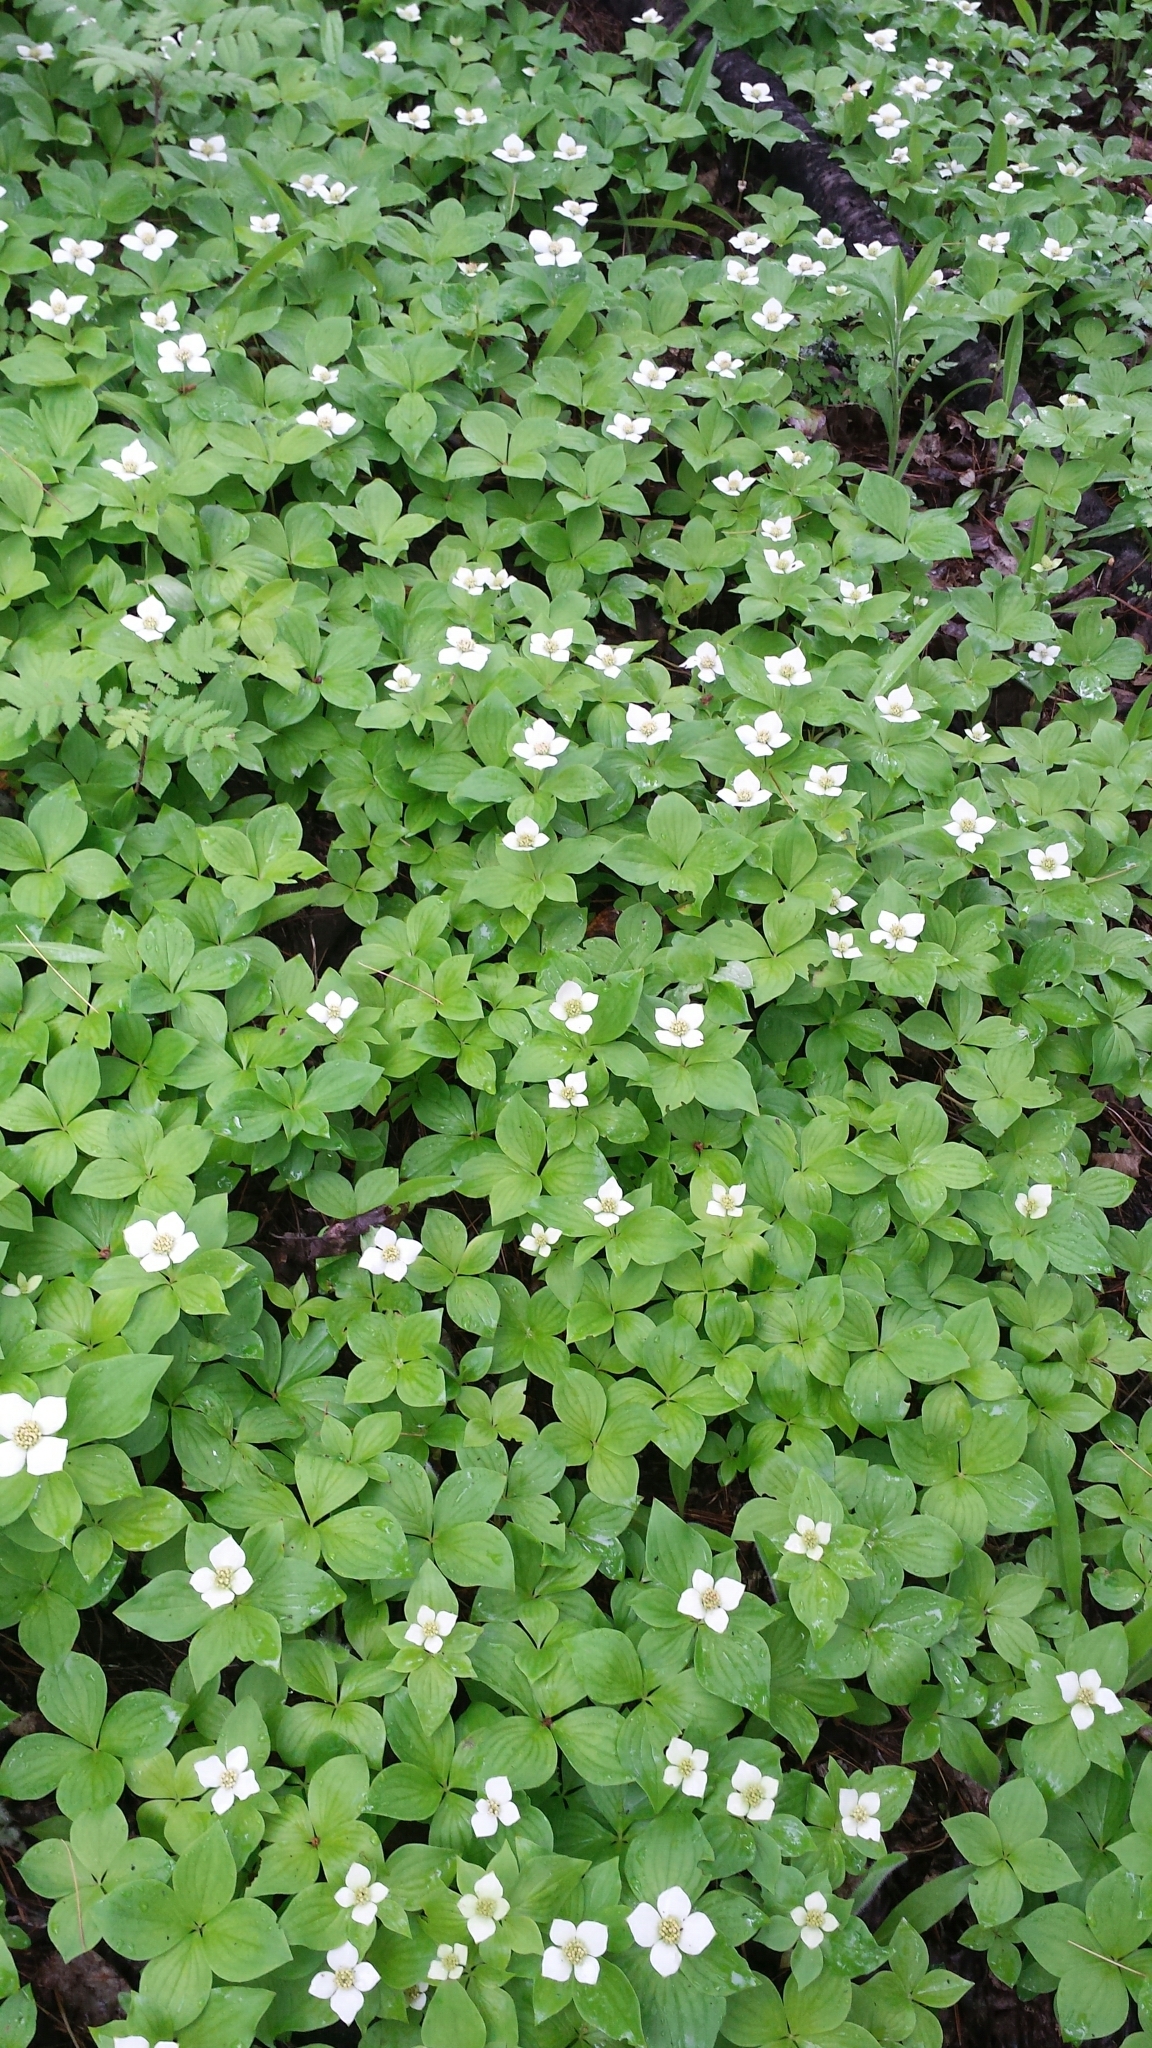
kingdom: Plantae
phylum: Tracheophyta
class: Magnoliopsida
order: Cornales
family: Cornaceae
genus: Cornus
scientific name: Cornus canadensis
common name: Creeping dogwood
